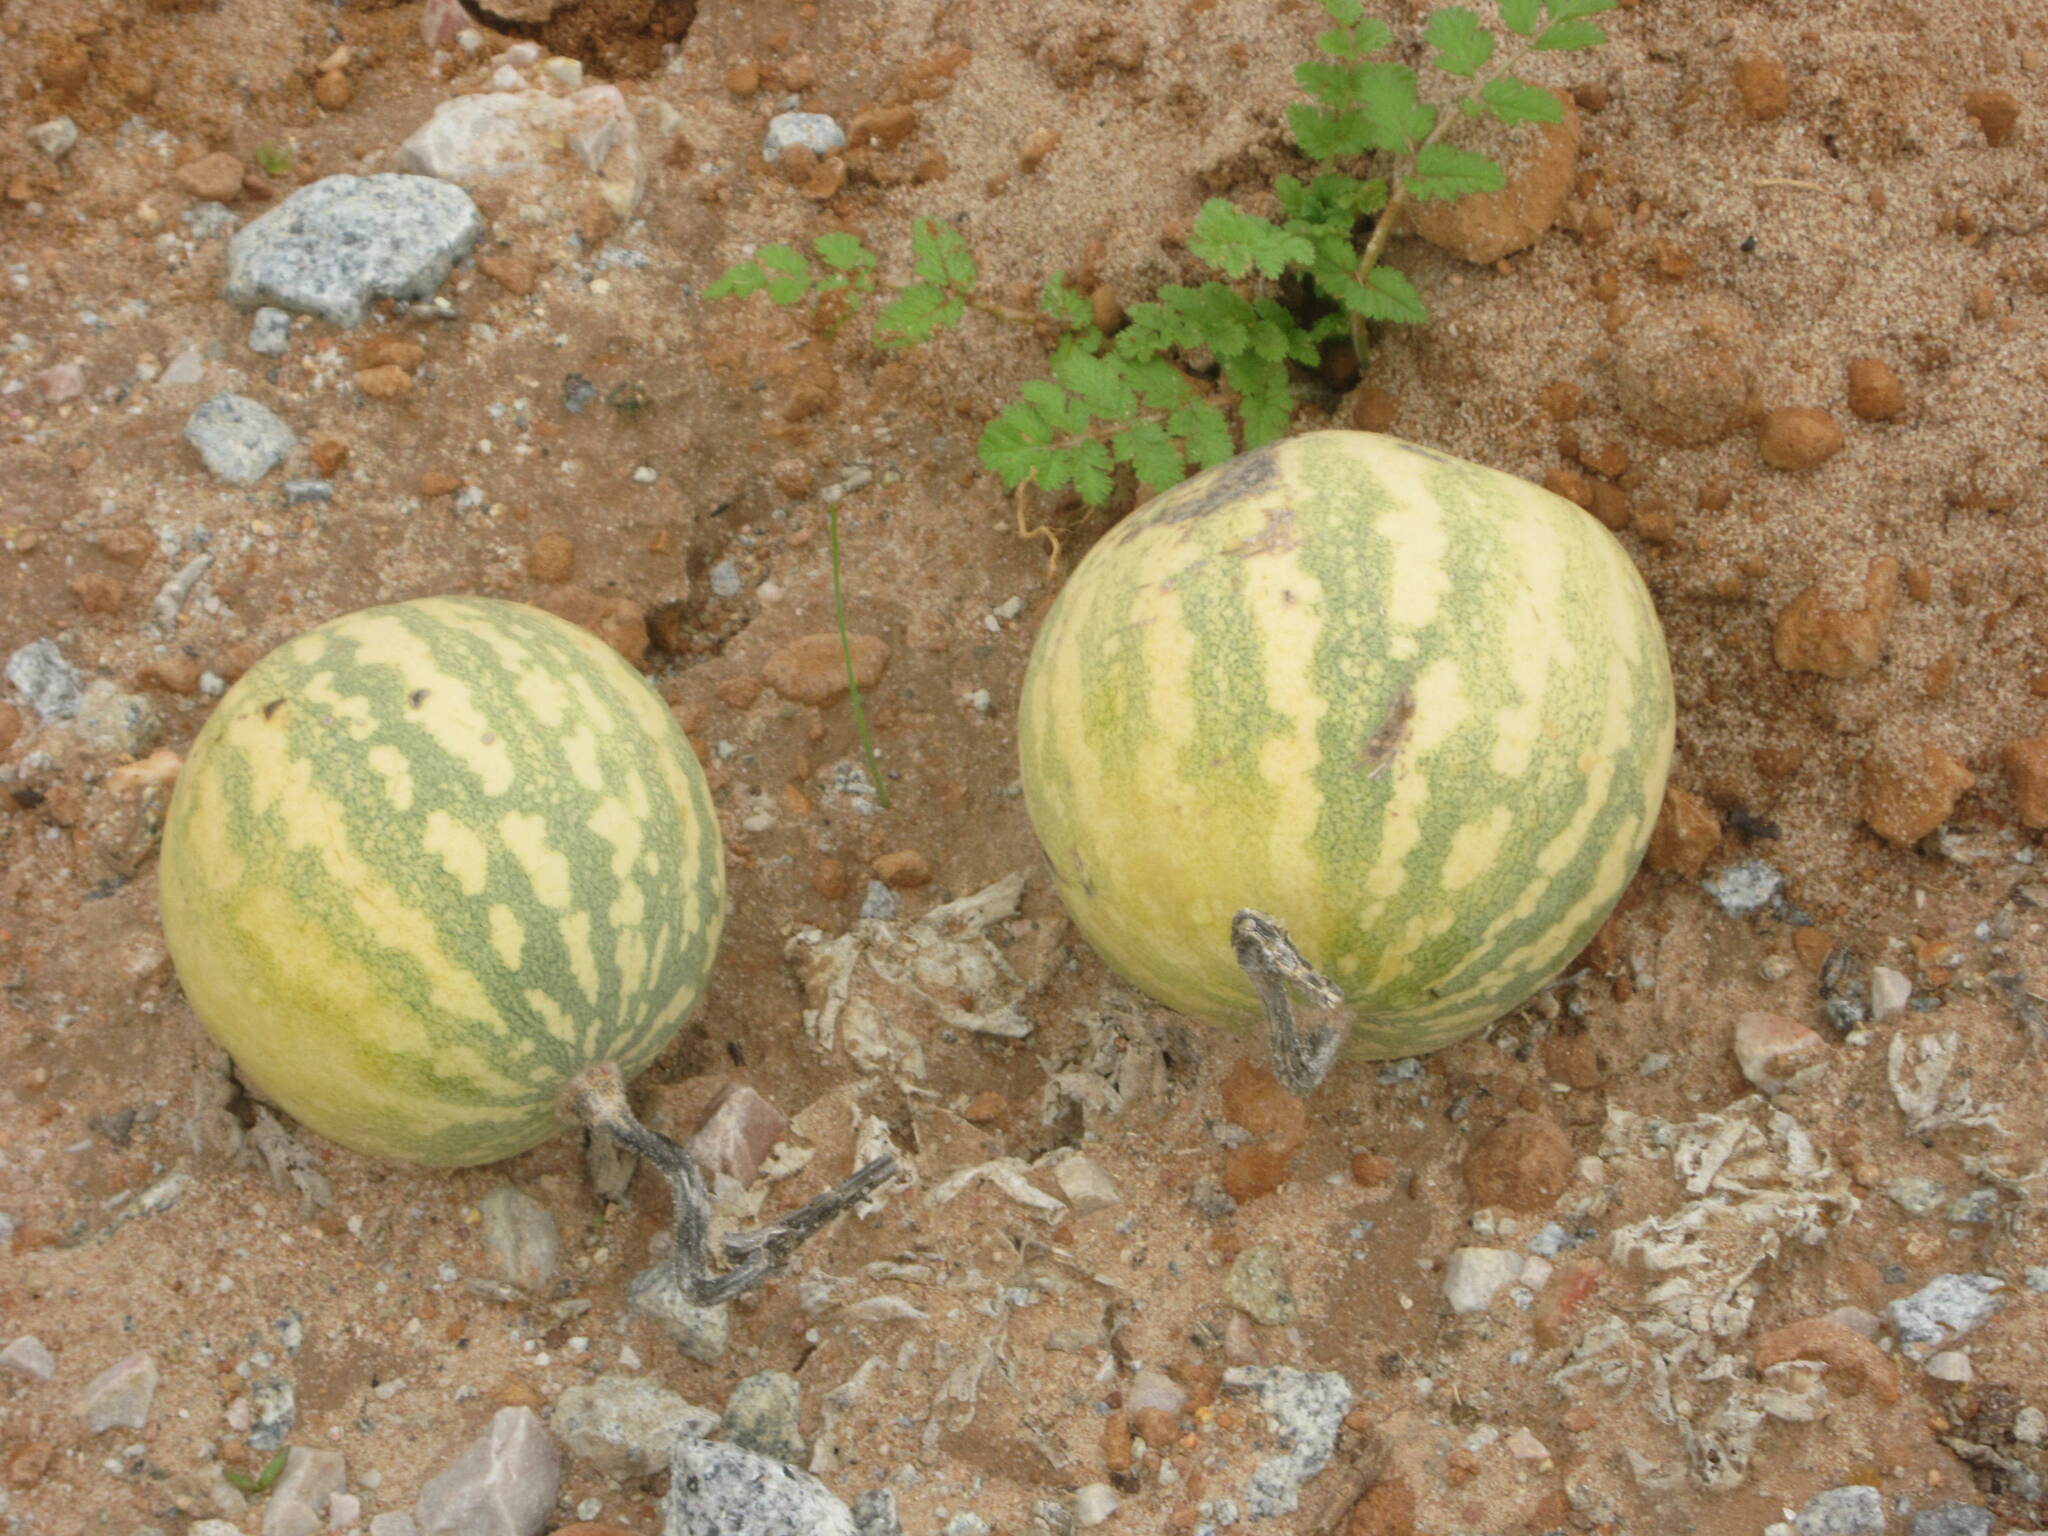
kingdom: Plantae
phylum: Tracheophyta
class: Magnoliopsida
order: Cucurbitales
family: Cucurbitaceae
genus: Citrullus
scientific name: Citrullus amarus
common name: Fodder-melon
